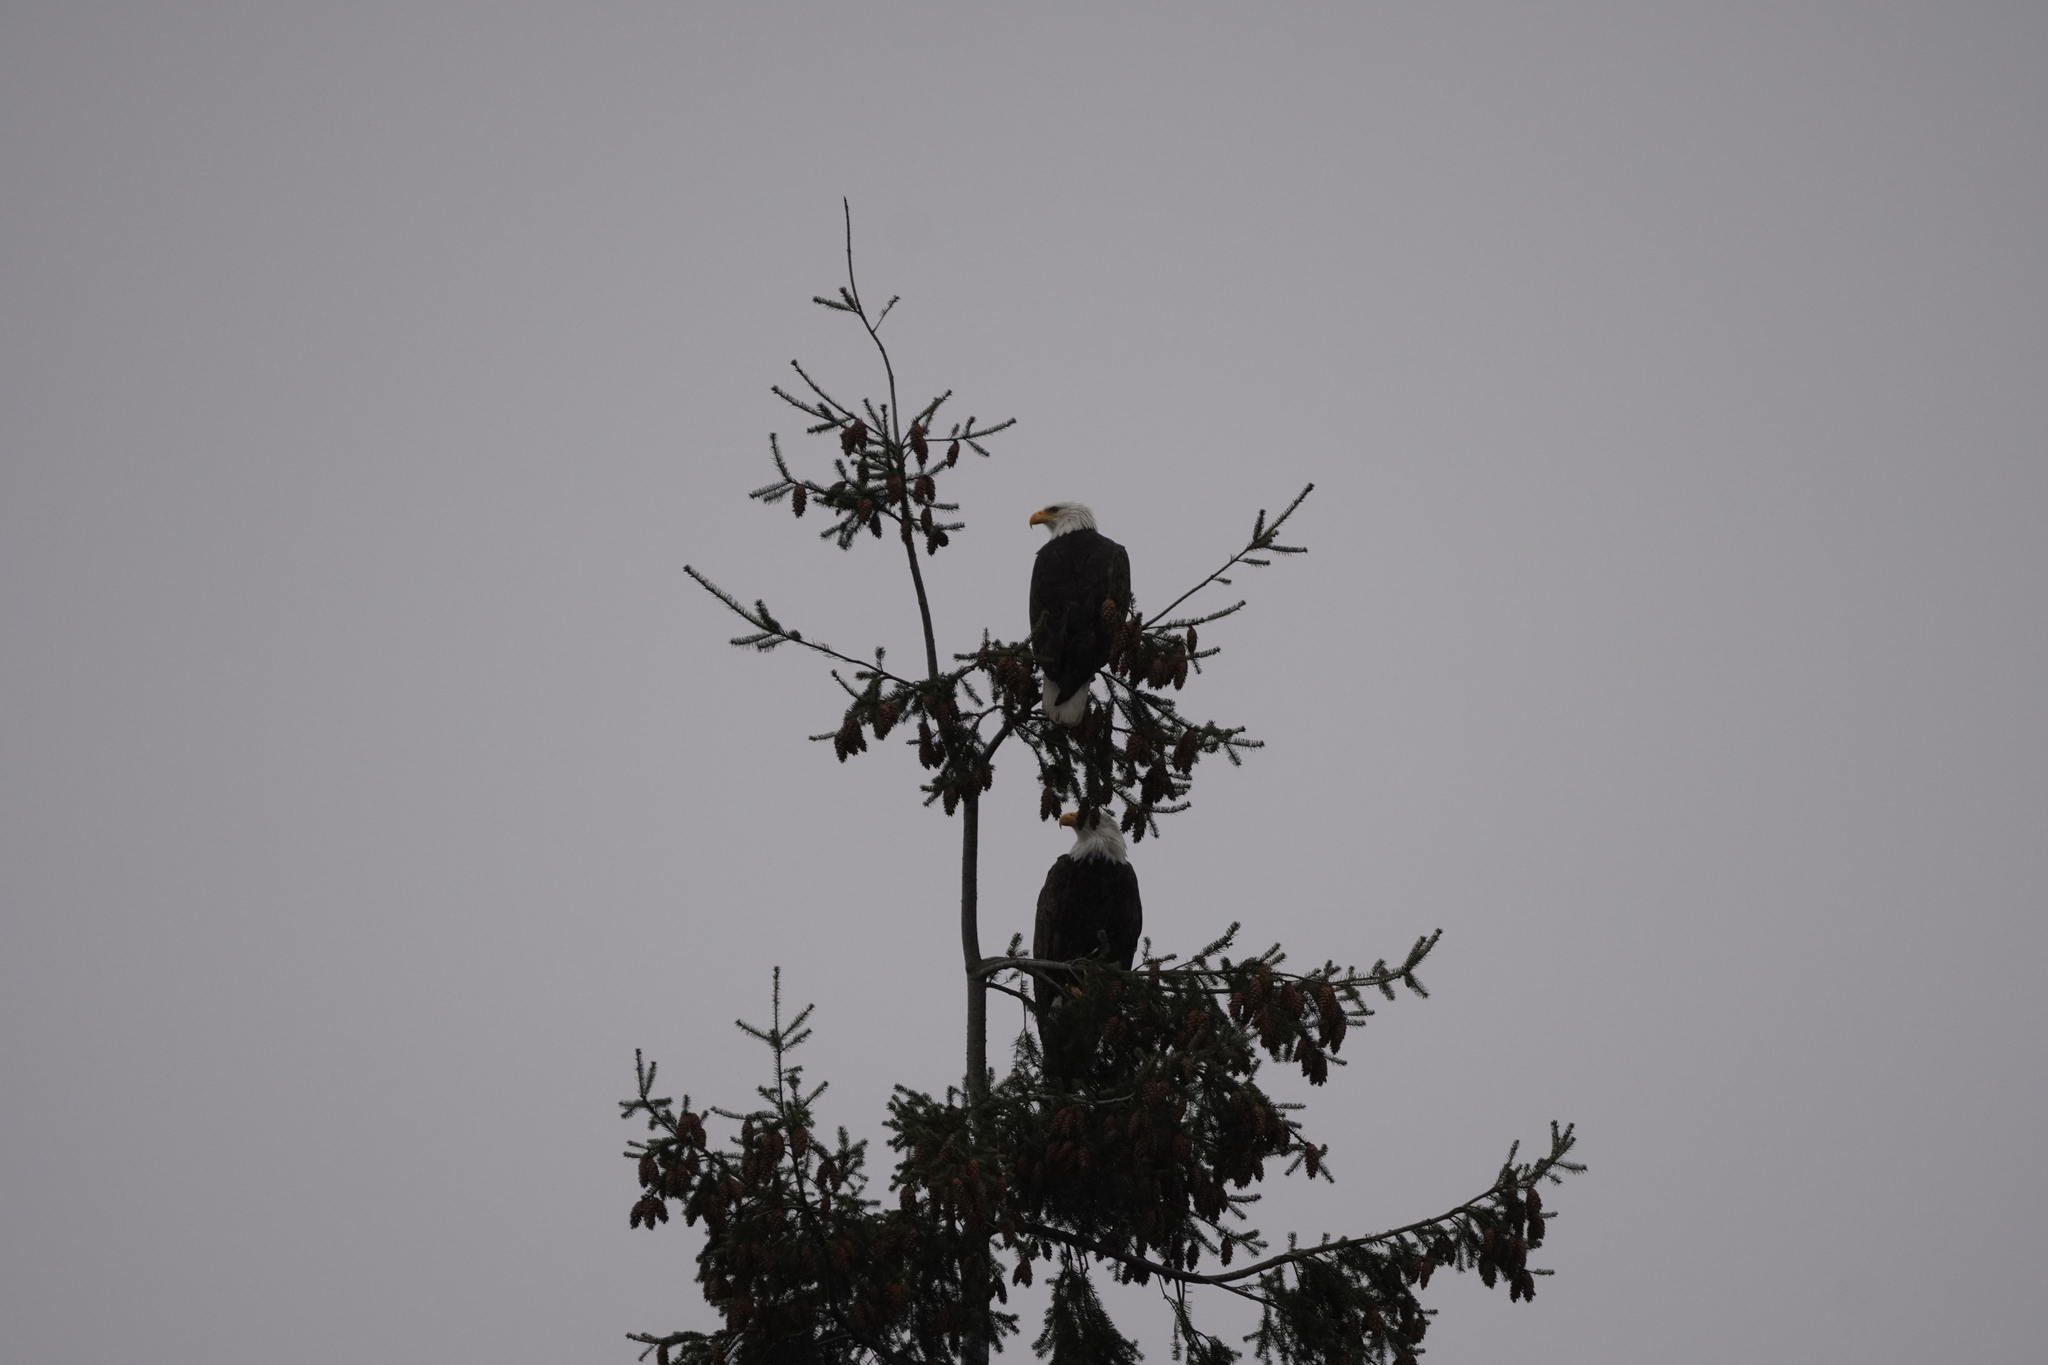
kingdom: Animalia
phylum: Chordata
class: Aves
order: Accipitriformes
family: Accipitridae
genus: Haliaeetus
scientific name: Haliaeetus leucocephalus
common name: Bald eagle
